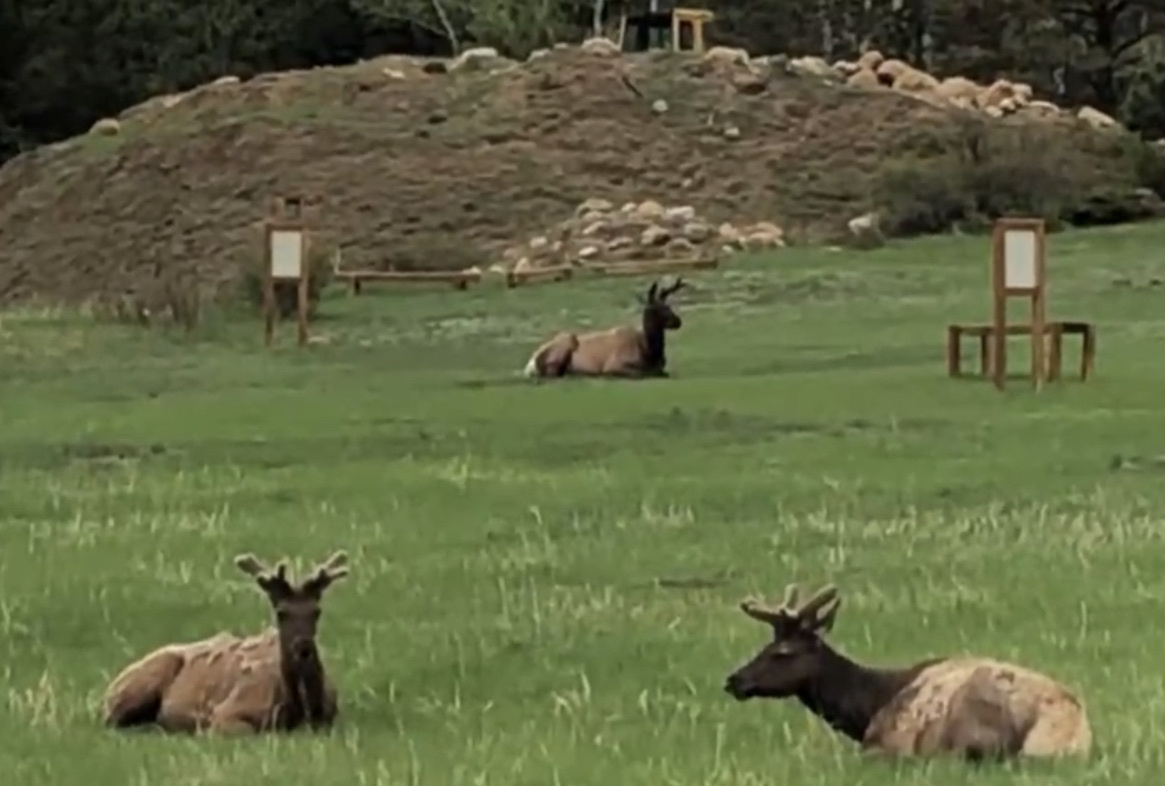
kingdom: Animalia
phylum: Chordata
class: Mammalia
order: Artiodactyla
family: Cervidae
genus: Cervus
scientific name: Cervus elaphus
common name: Red deer
